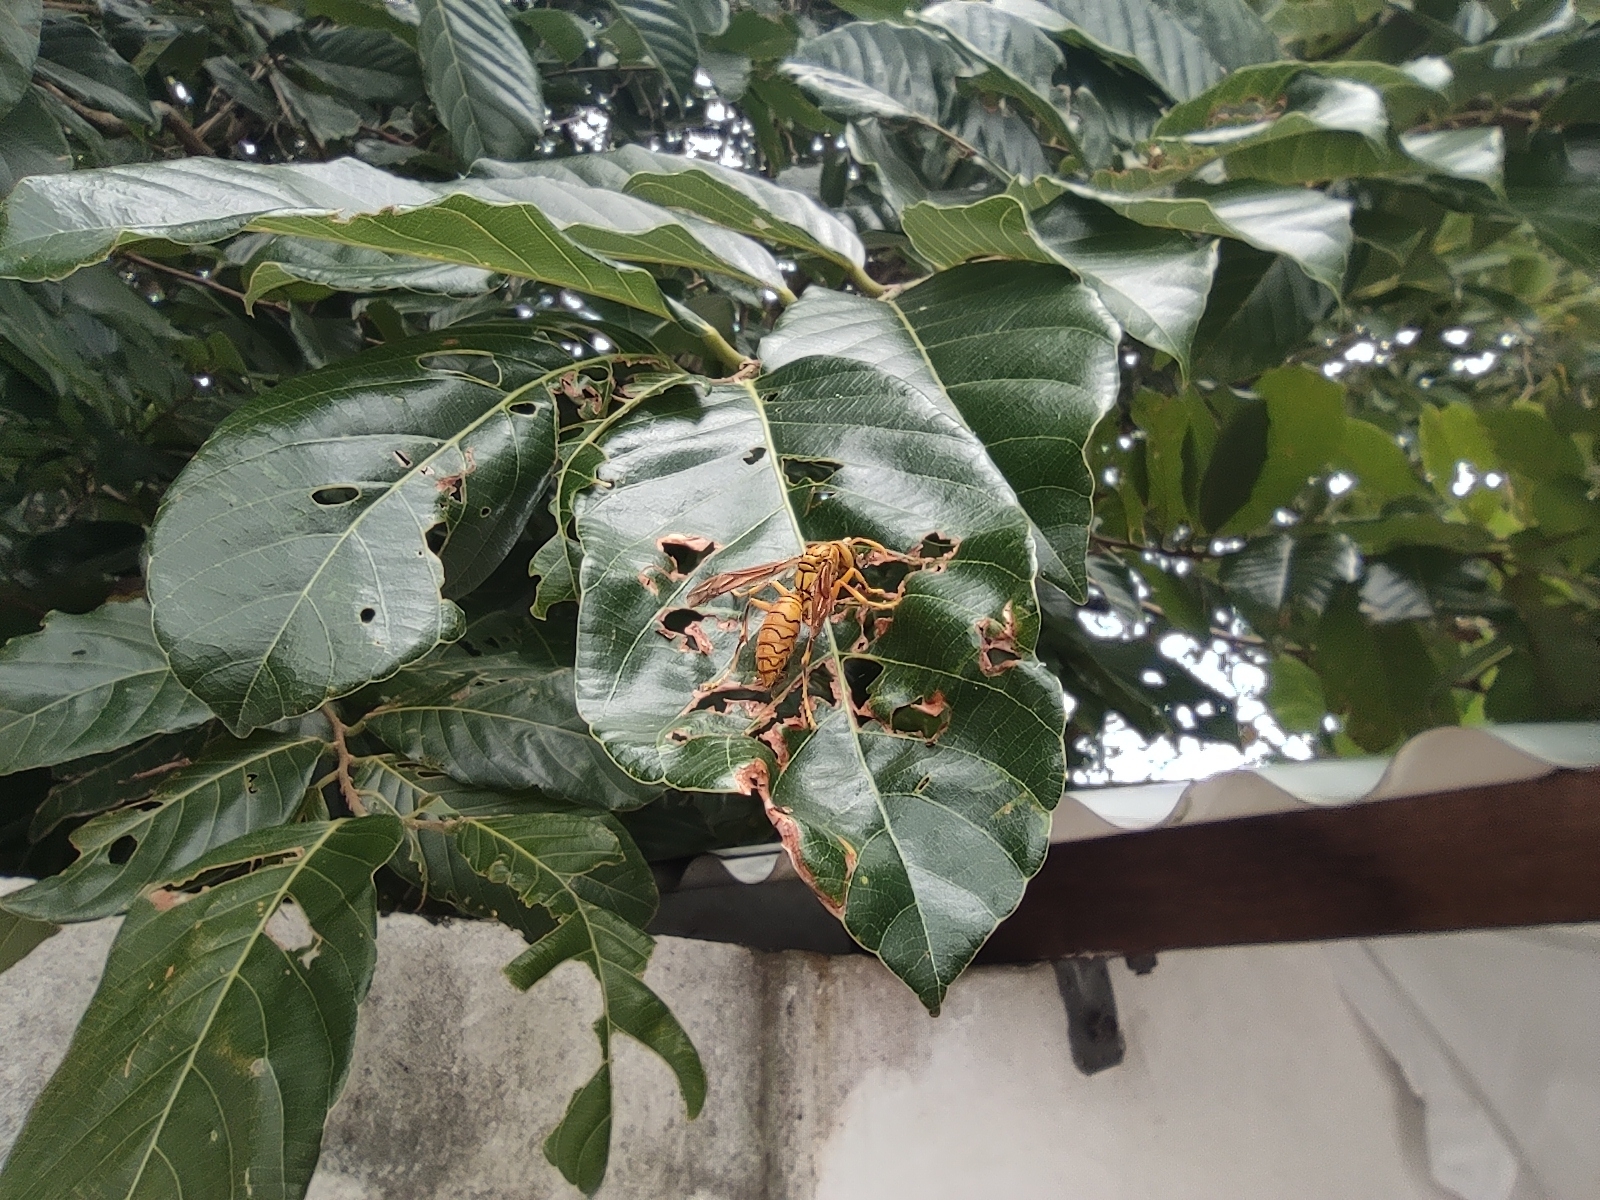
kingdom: Animalia
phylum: Arthropoda
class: Insecta
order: Hymenoptera
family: Eumenidae
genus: Polistes
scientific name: Polistes olivaceus
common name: Paper wasp
